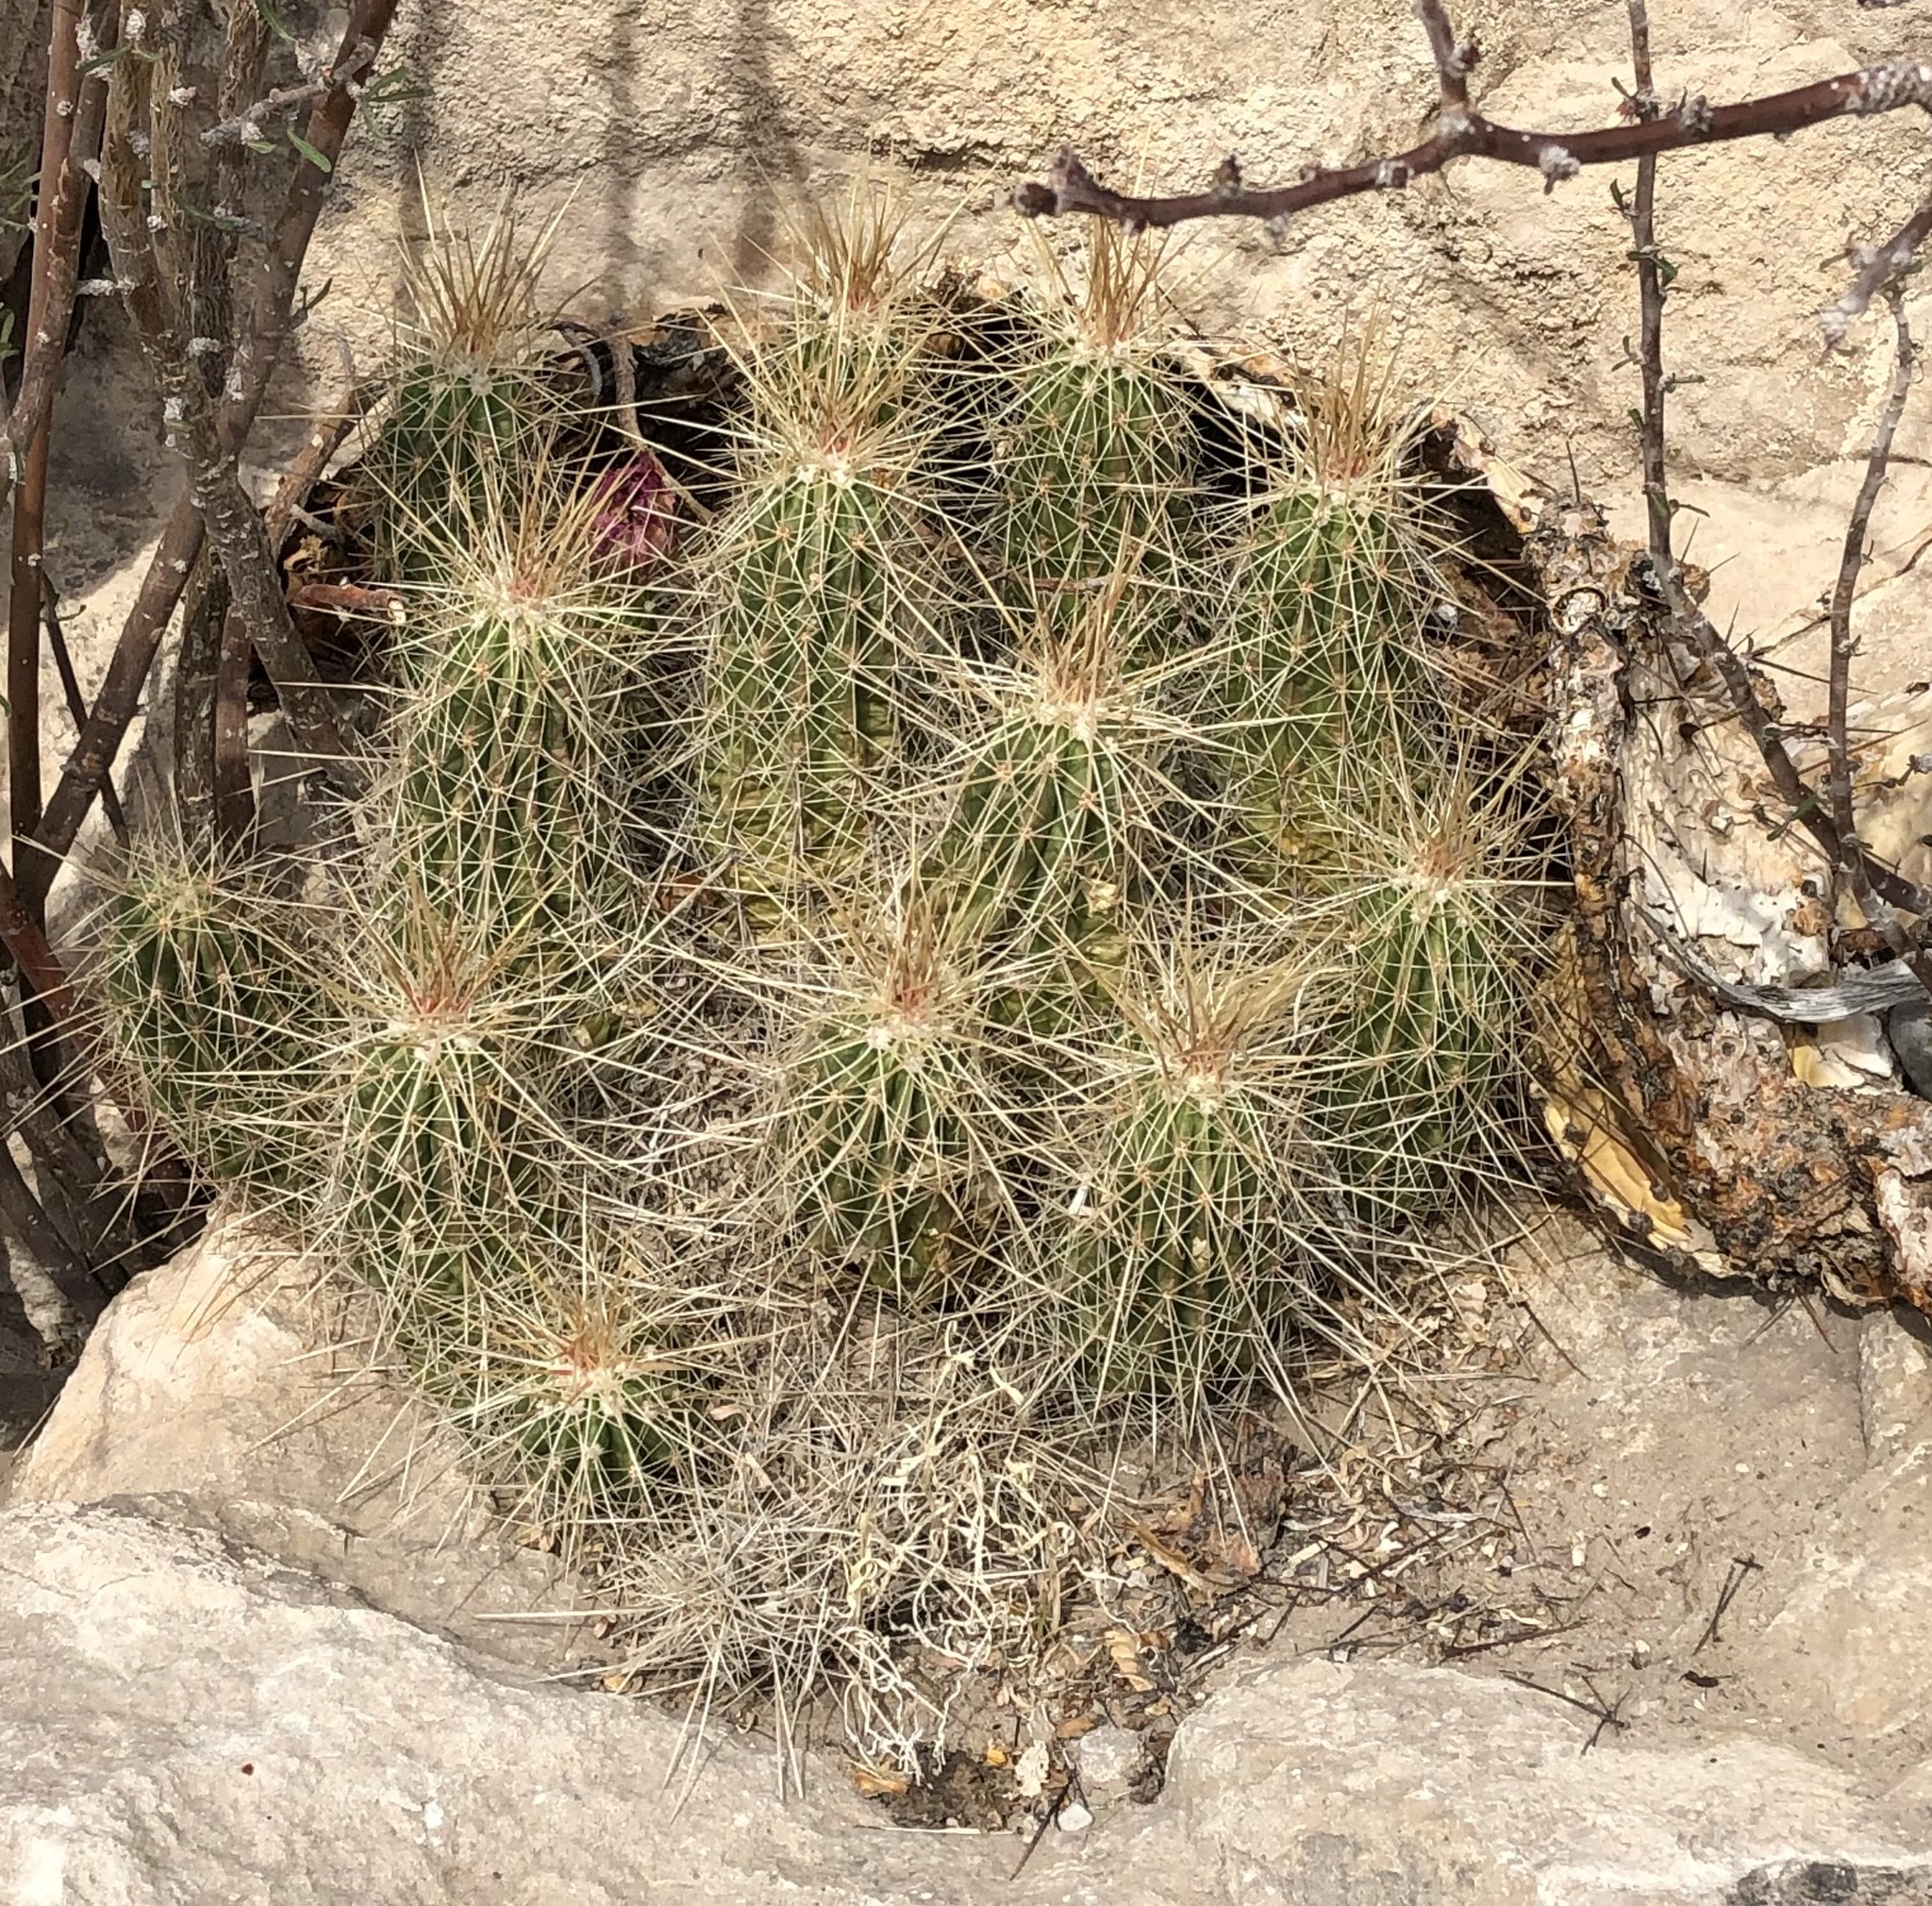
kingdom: Plantae
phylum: Tracheophyta
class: Magnoliopsida
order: Caryophyllales
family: Cactaceae
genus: Echinocereus
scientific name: Echinocereus stramineus
